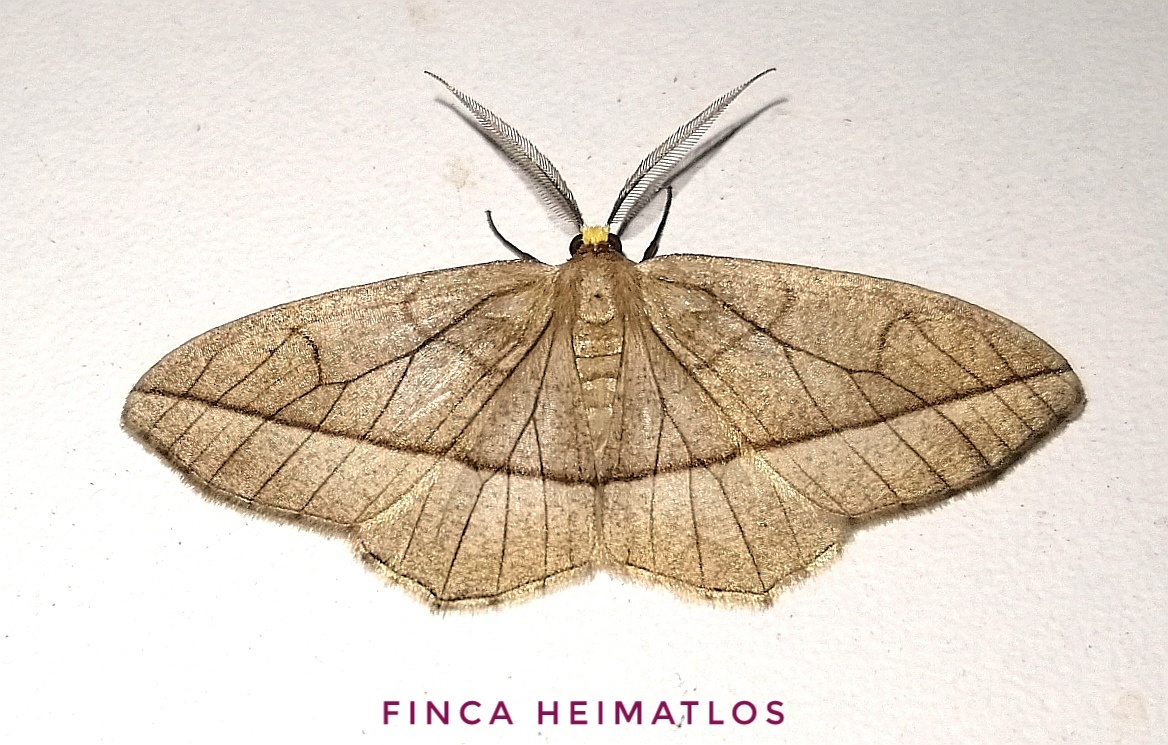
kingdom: Animalia
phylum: Arthropoda
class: Insecta
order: Lepidoptera
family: Geometridae
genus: Nephodia
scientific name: Nephodia secturata
